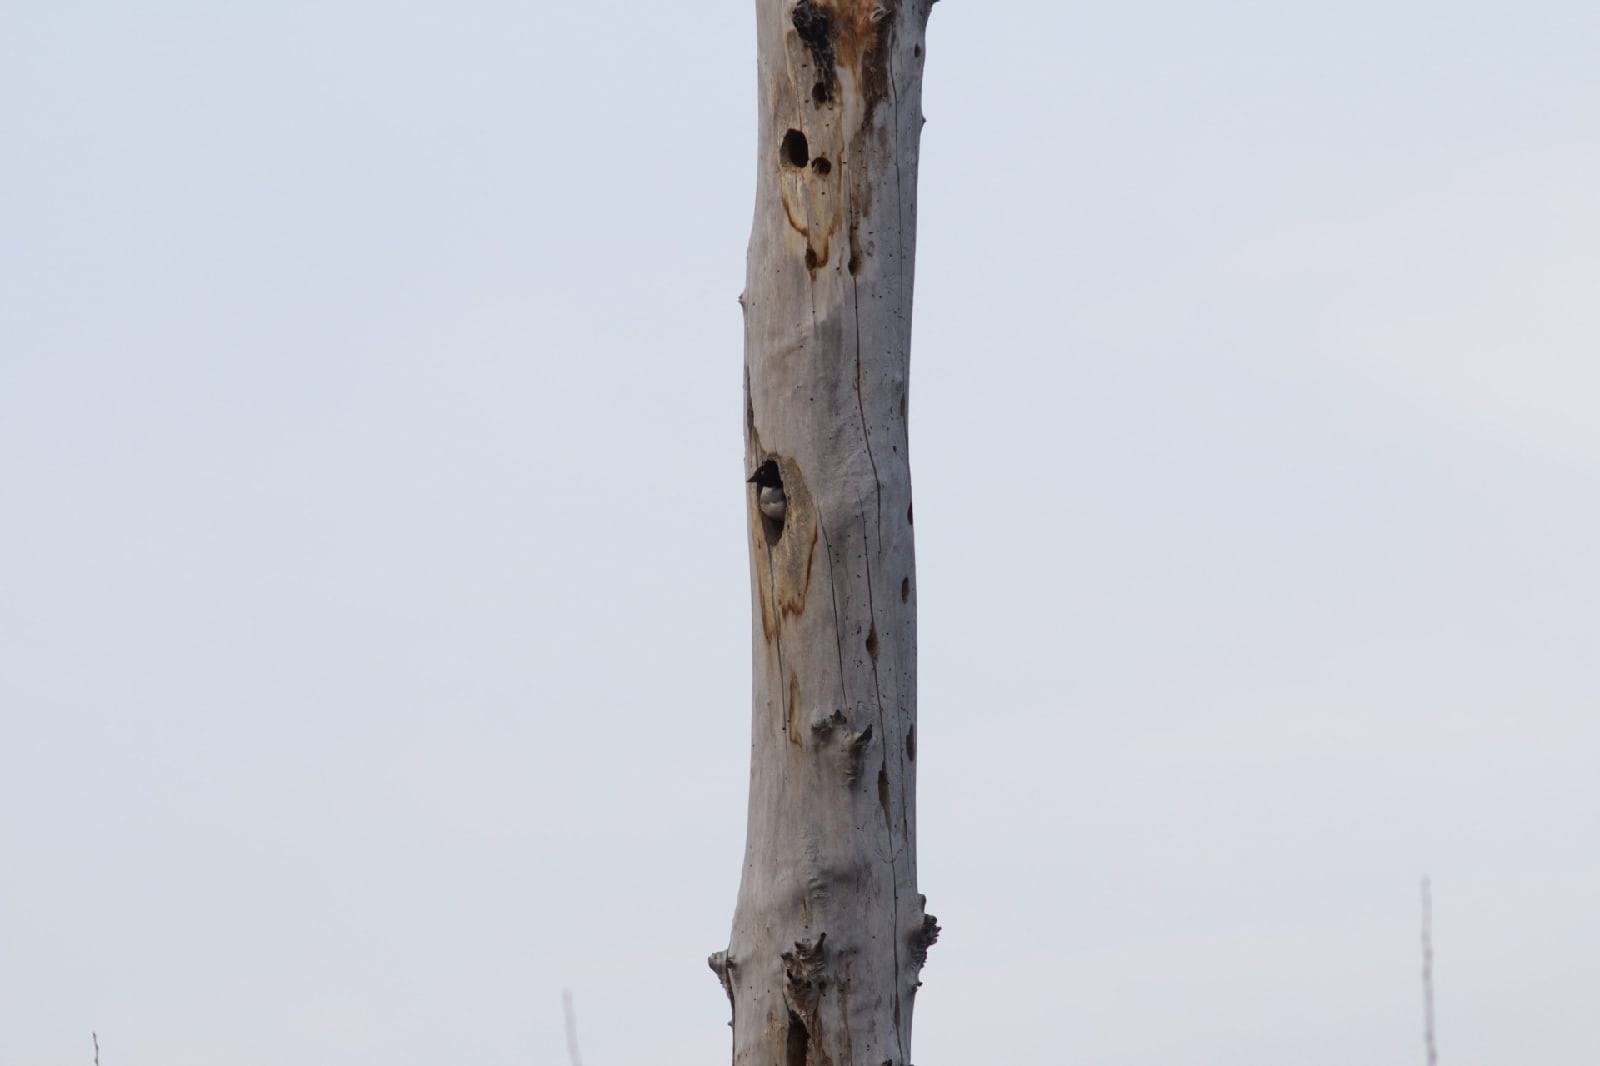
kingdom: Animalia
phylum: Chordata
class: Aves
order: Anseriformes
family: Anatidae
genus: Bucephala
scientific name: Bucephala clangula
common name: Common goldeneye
